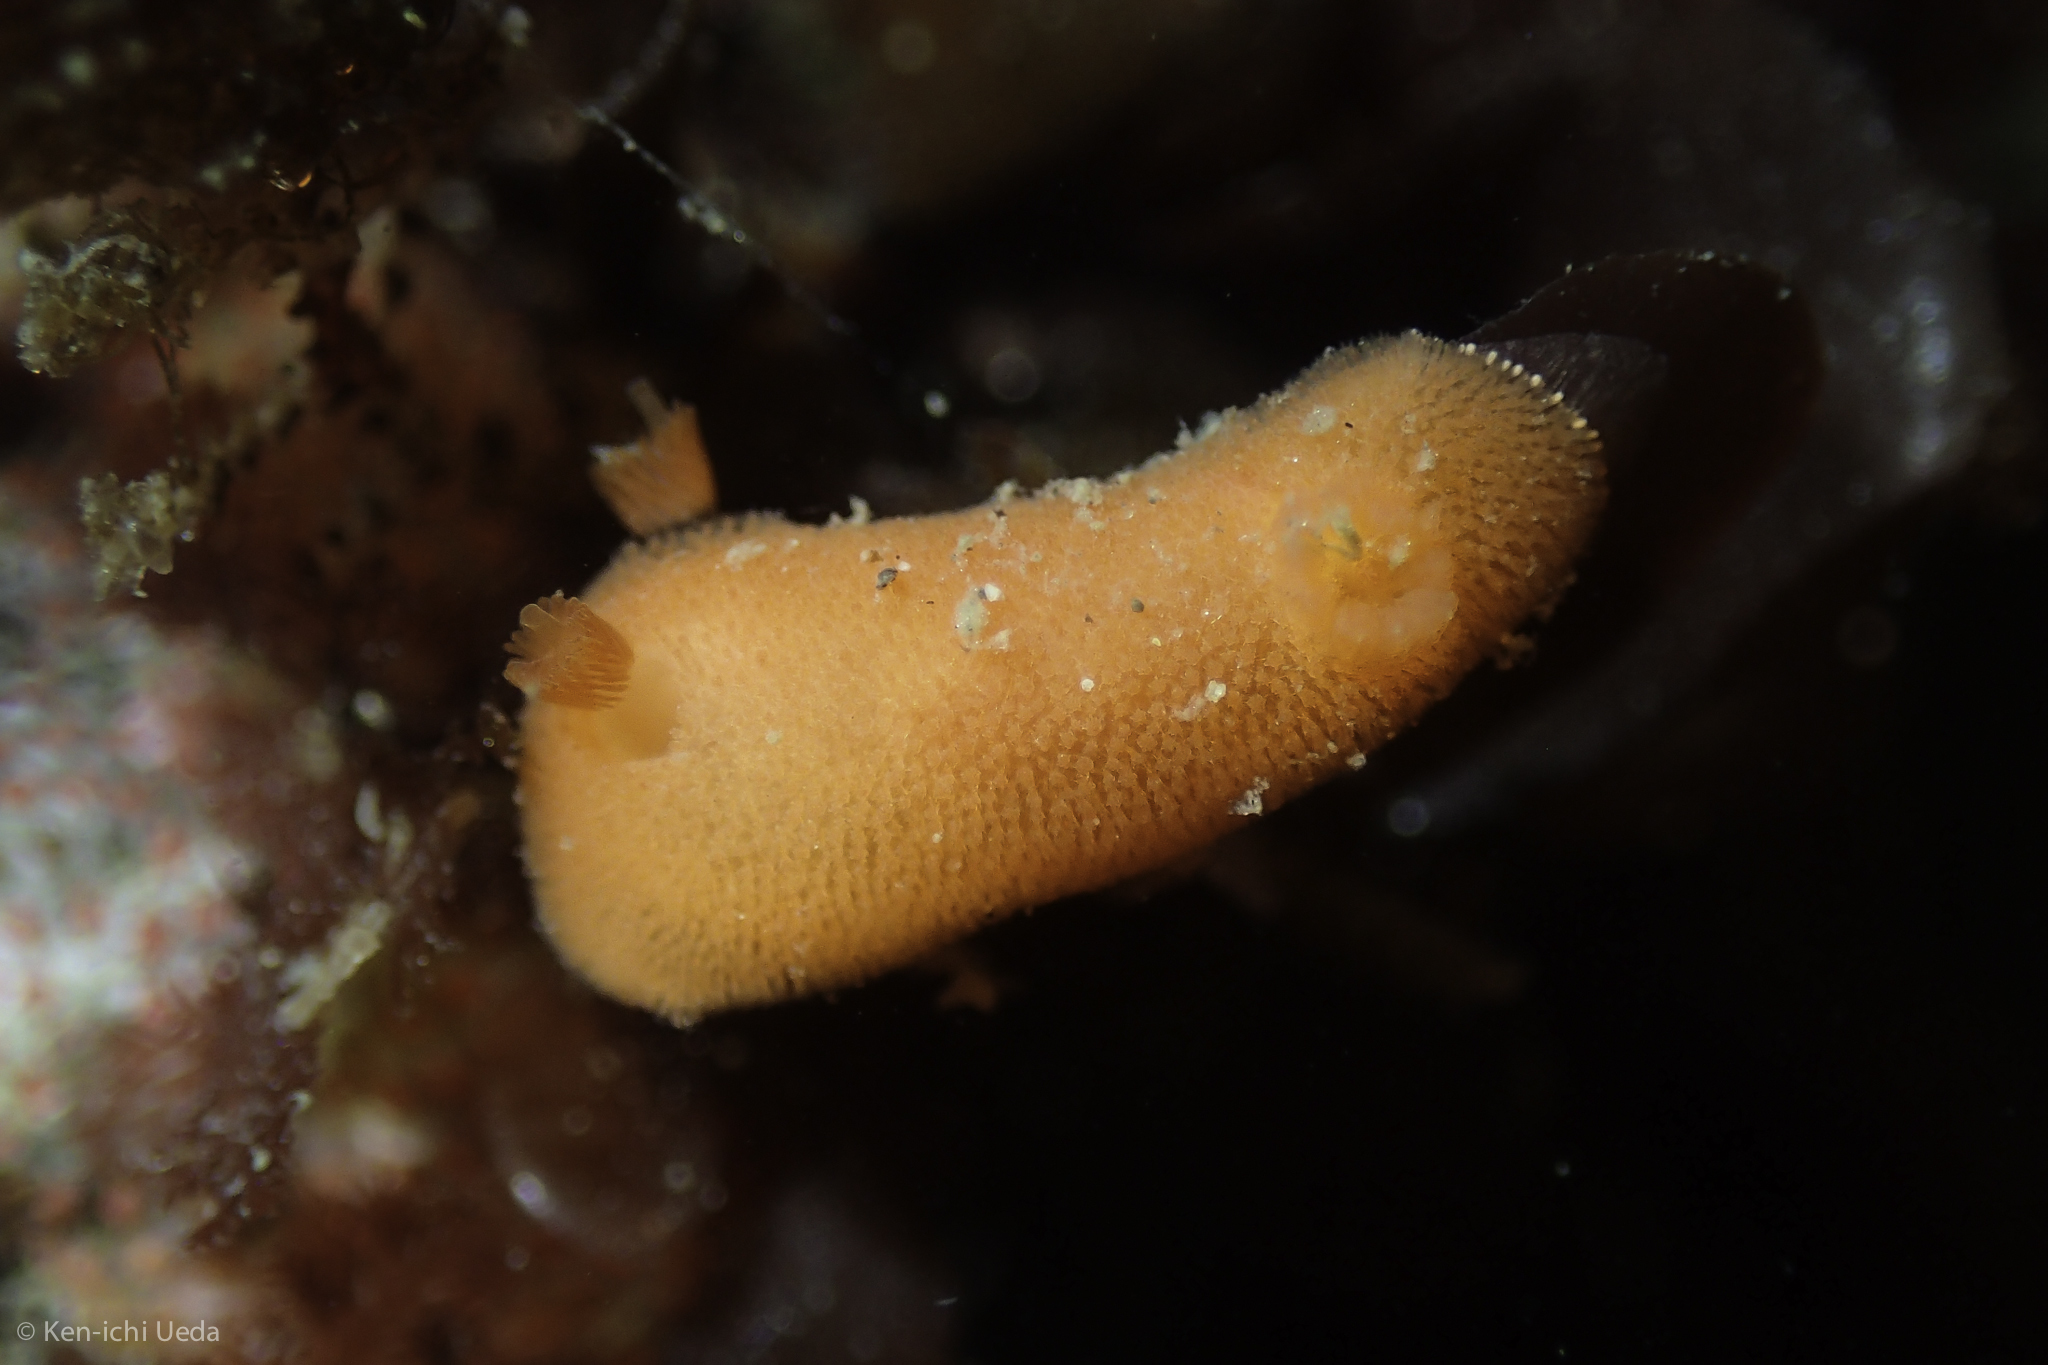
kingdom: Animalia
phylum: Mollusca
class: Gastropoda
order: Nudibranchia
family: Discodorididae
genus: Rostanga
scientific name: Rostanga pulchra
